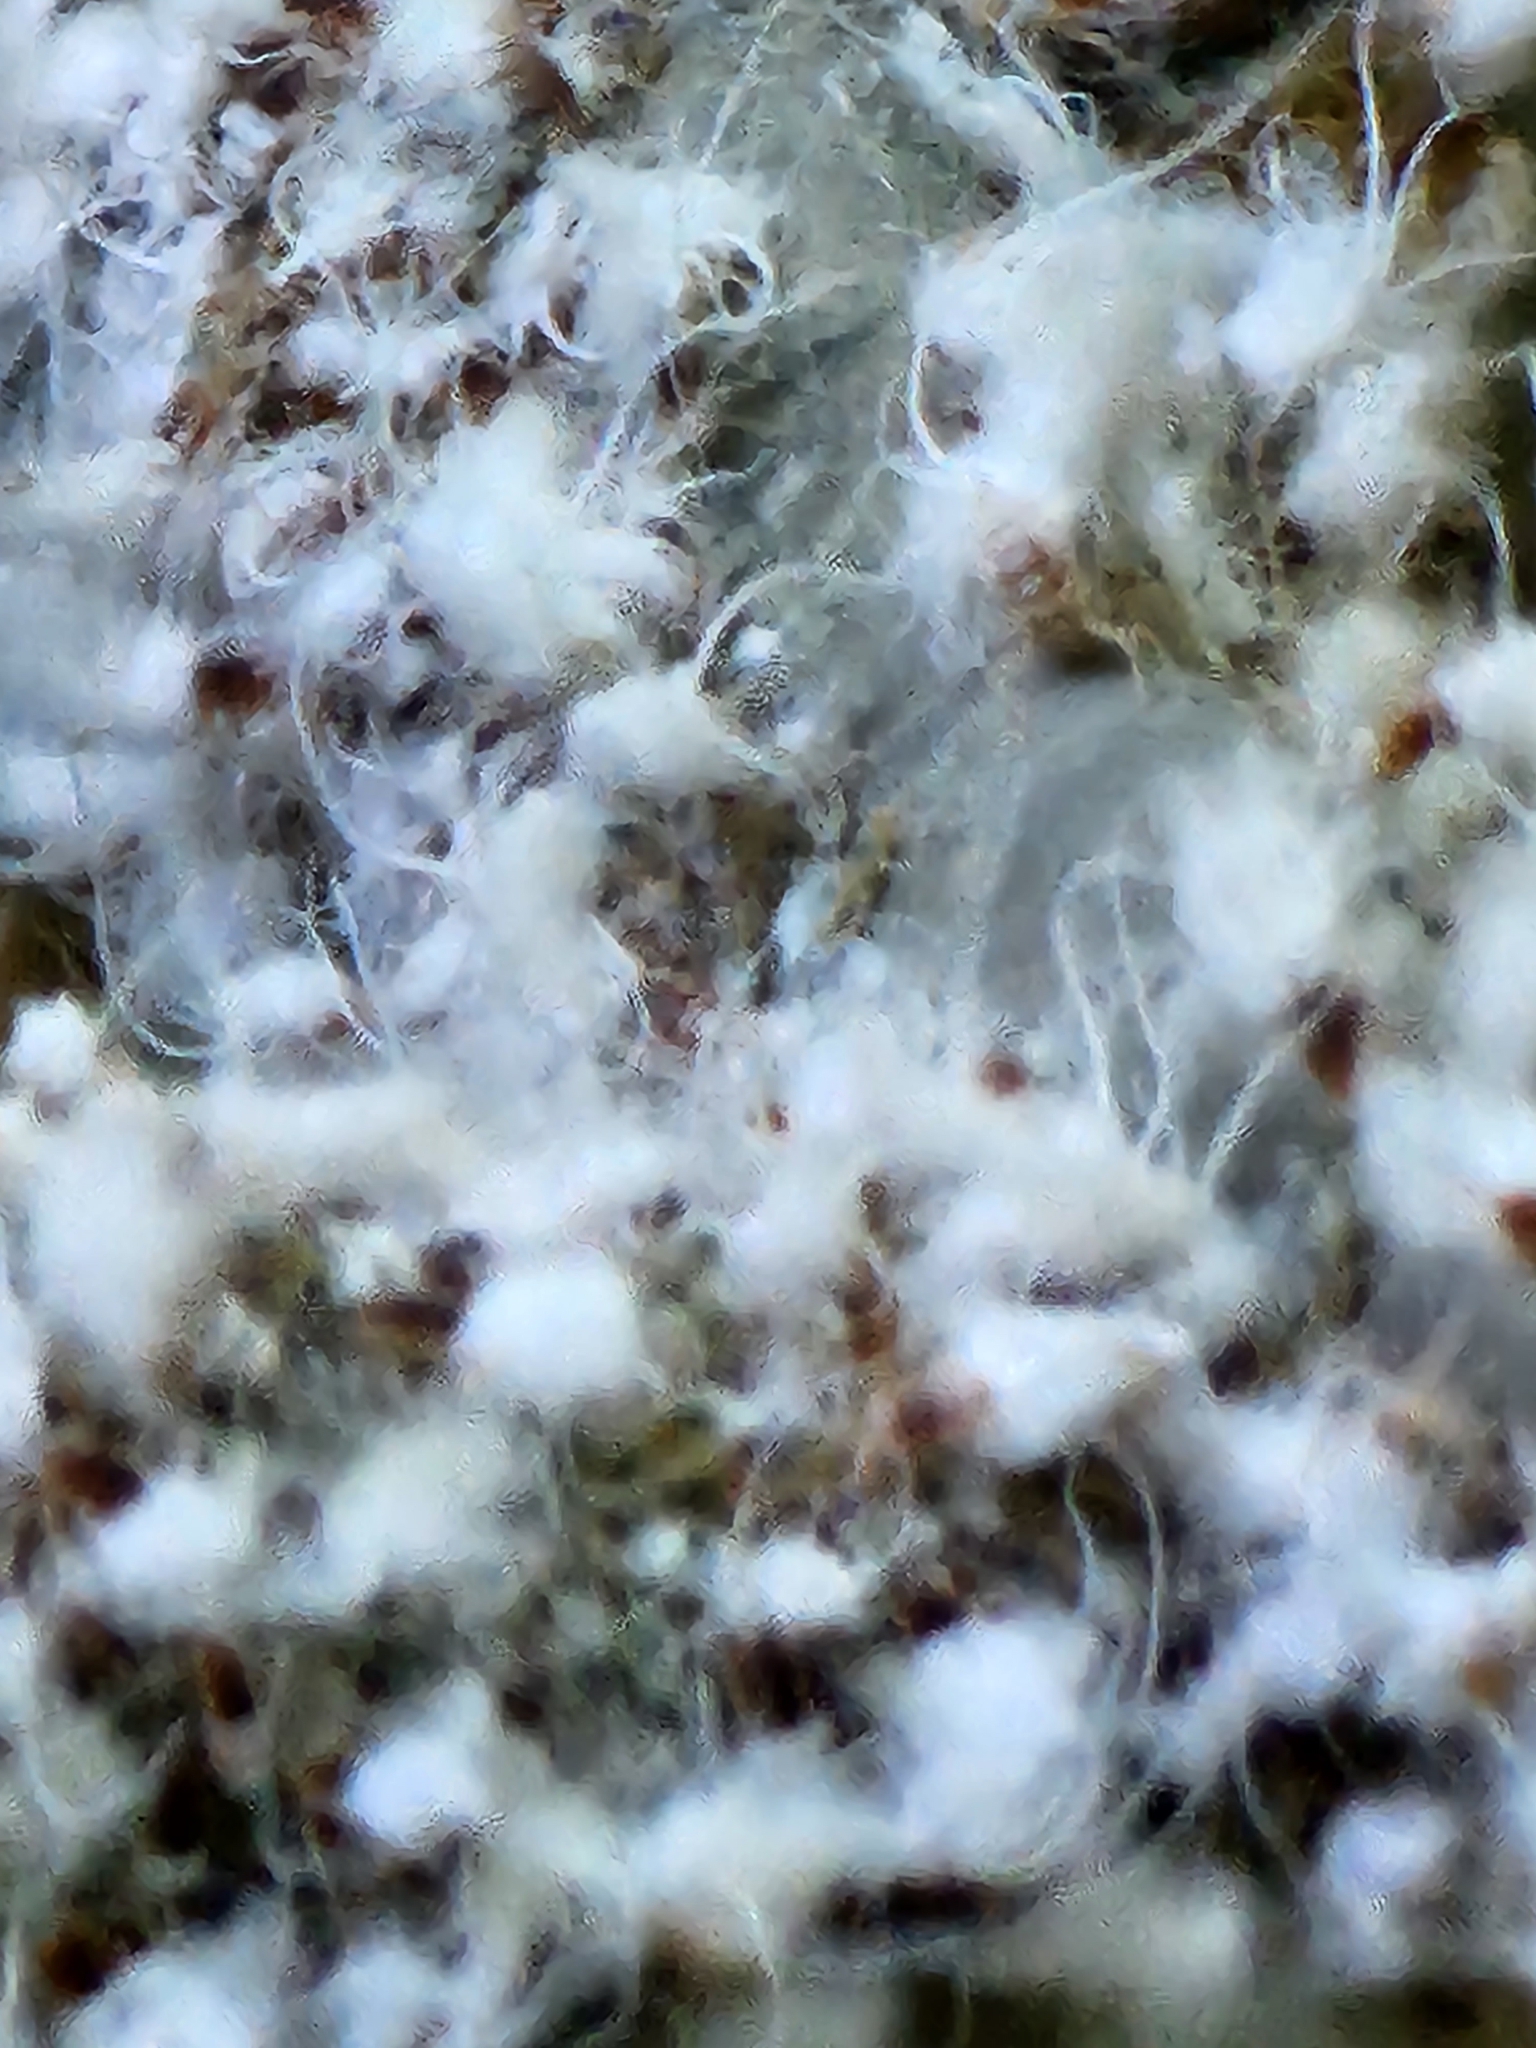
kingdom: Animalia
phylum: Arthropoda
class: Insecta
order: Hemiptera
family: Aphididae
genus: Grylloprociphilus
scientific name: Grylloprociphilus imbricator
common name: Beech blight aphid
